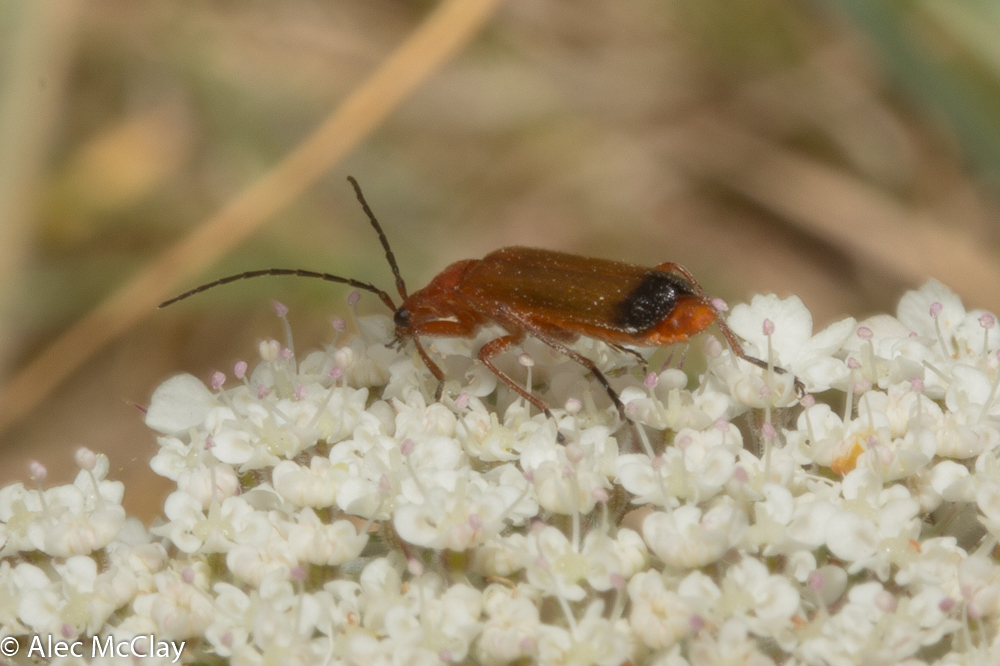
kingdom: Animalia
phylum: Arthropoda
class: Insecta
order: Coleoptera
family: Cantharidae
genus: Rhagonycha
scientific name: Rhagonycha fulva
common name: Common red soldier beetle
